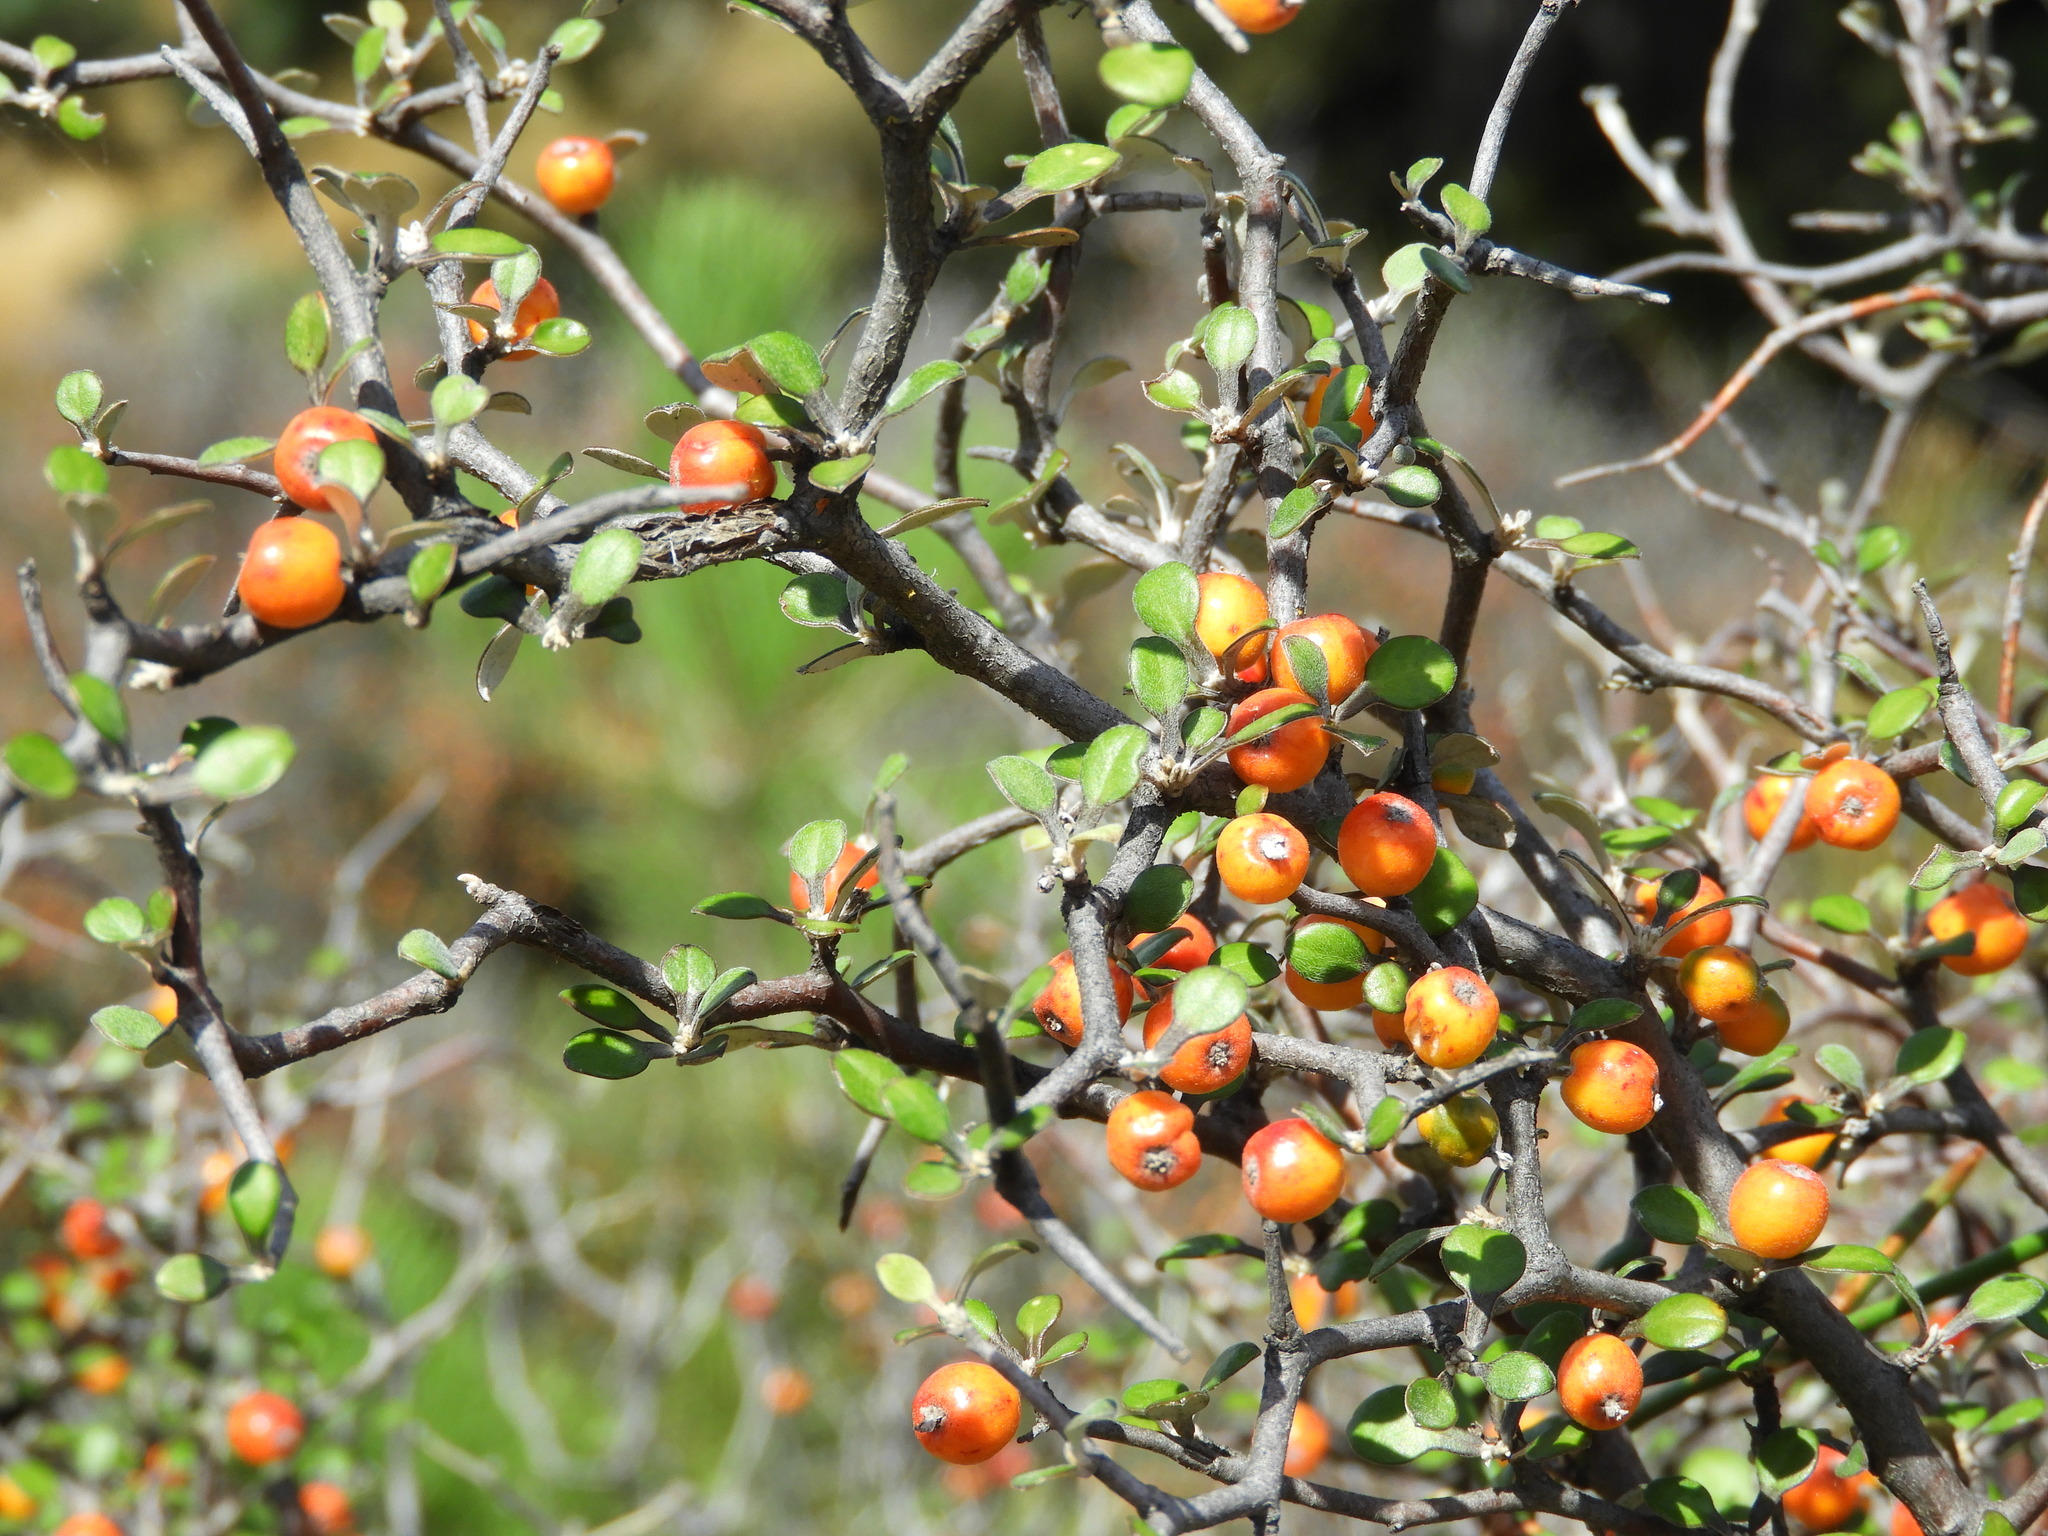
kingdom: Plantae
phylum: Tracheophyta
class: Magnoliopsida
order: Asterales
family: Argophyllaceae
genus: Corokia
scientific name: Corokia cotoneaster
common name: Wire nettingbush
